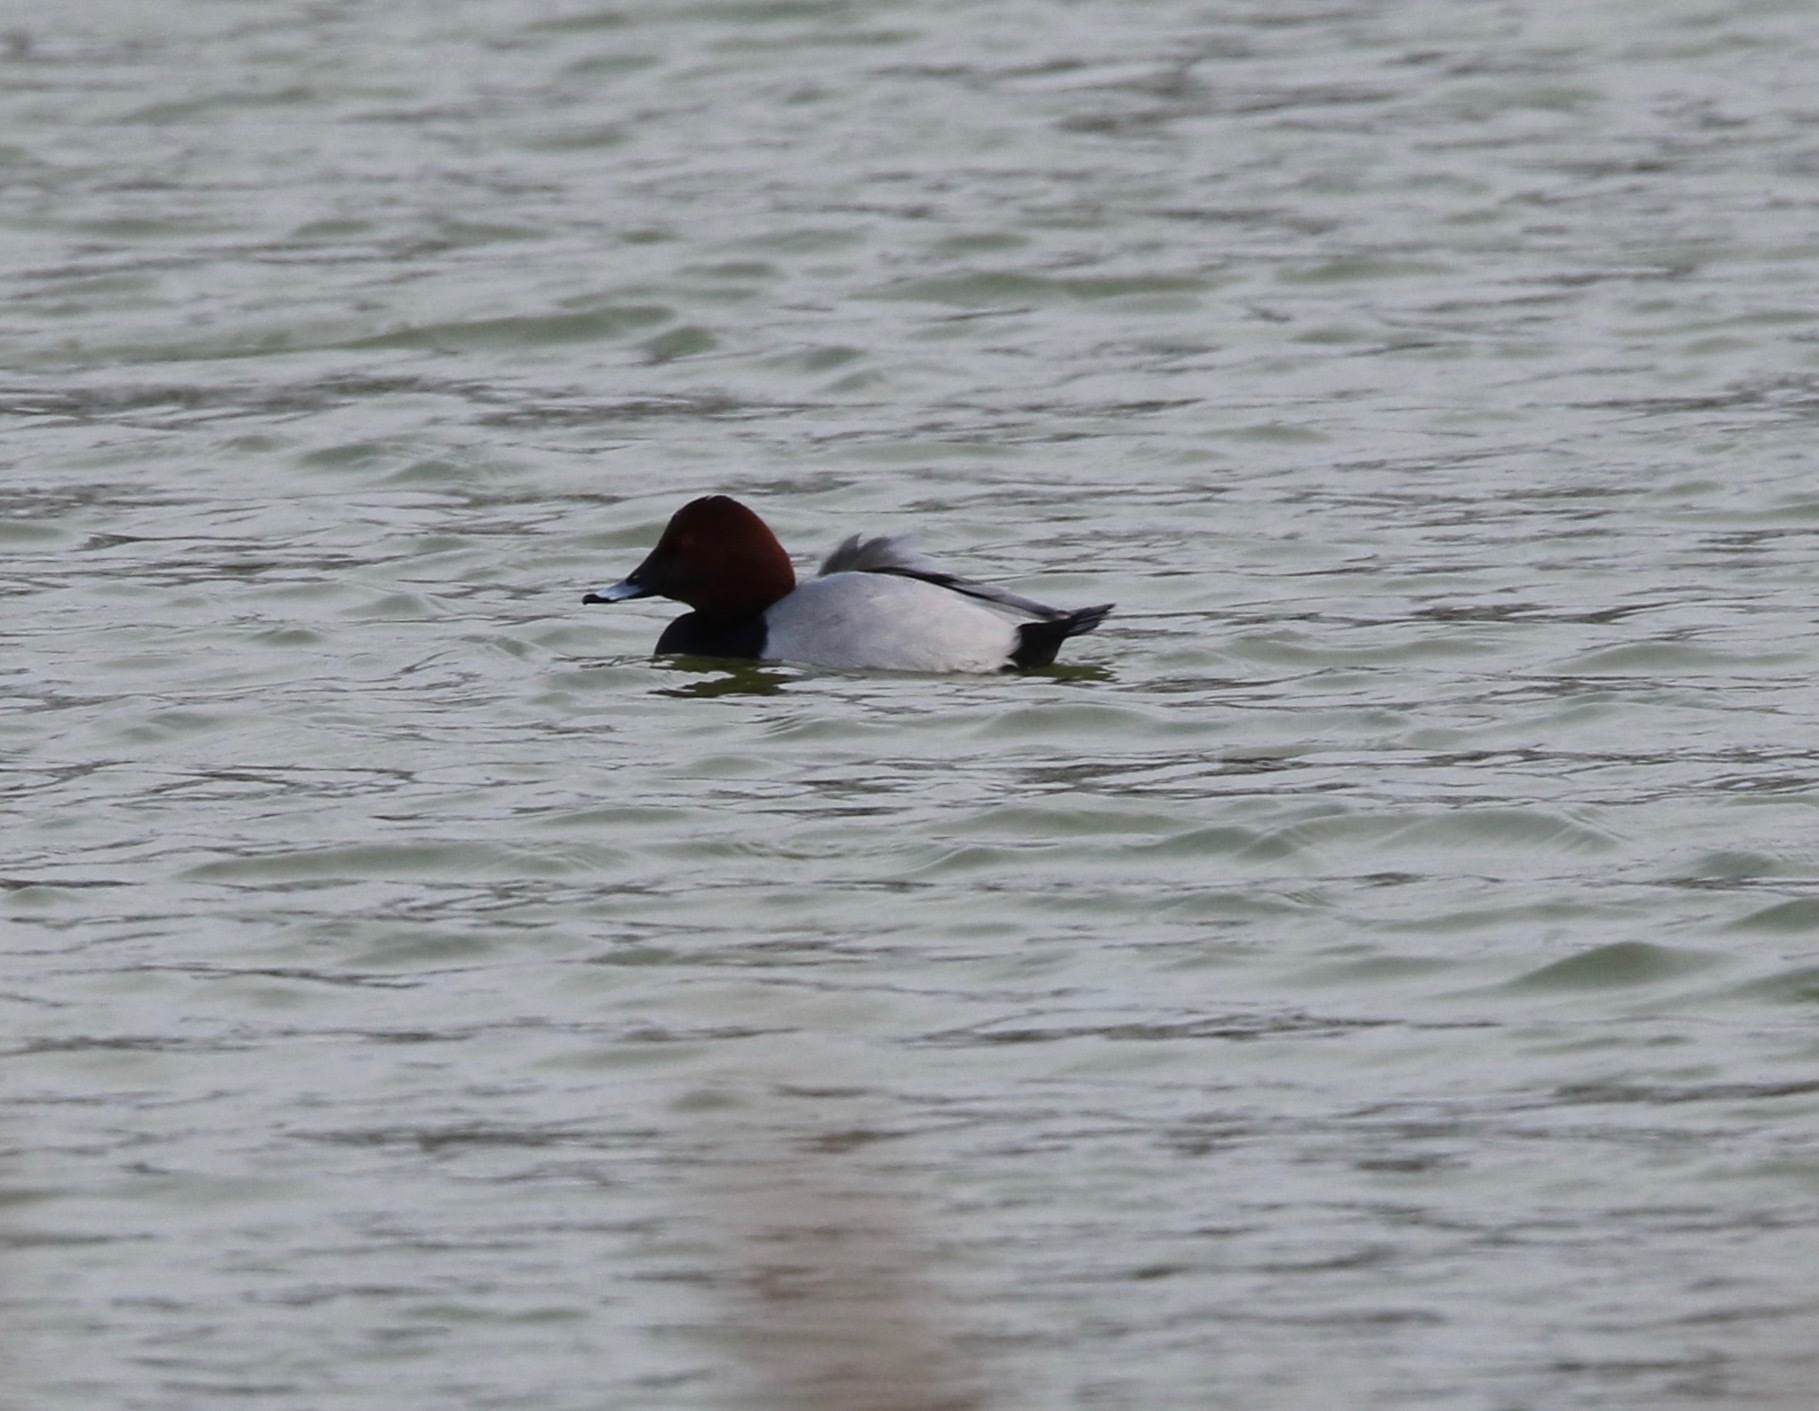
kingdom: Animalia
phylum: Chordata
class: Aves
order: Anseriformes
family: Anatidae
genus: Aythya
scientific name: Aythya ferina
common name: Common pochard
